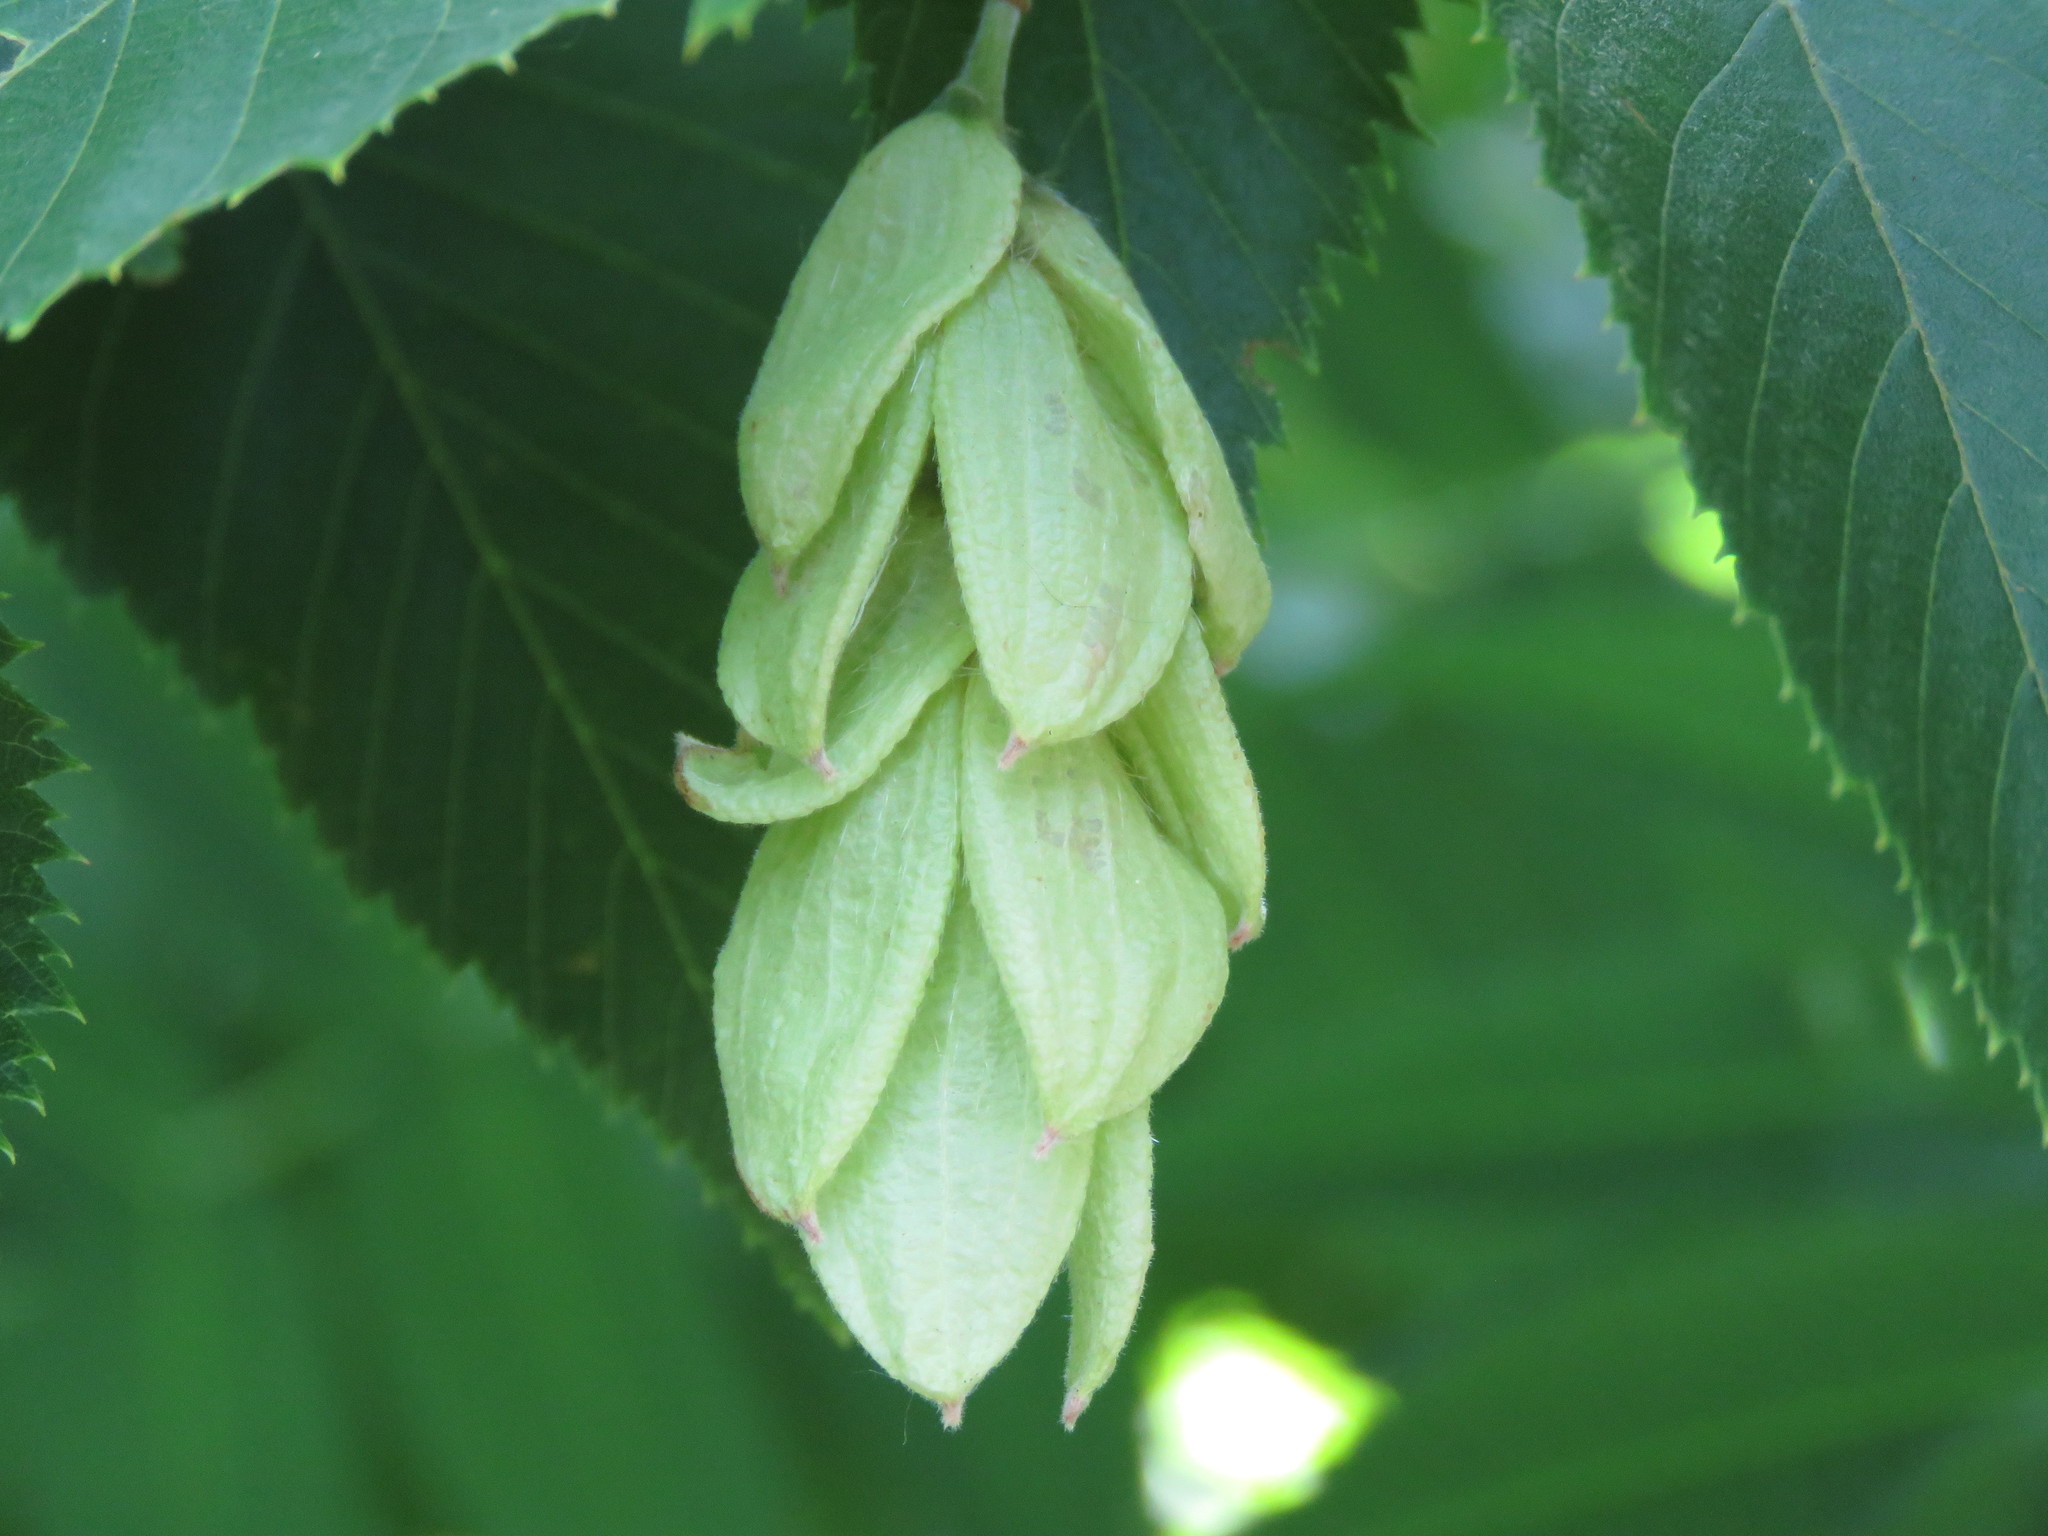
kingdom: Plantae
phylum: Tracheophyta
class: Magnoliopsida
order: Fagales
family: Betulaceae
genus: Ostrya
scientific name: Ostrya virginiana
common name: Ironwood
